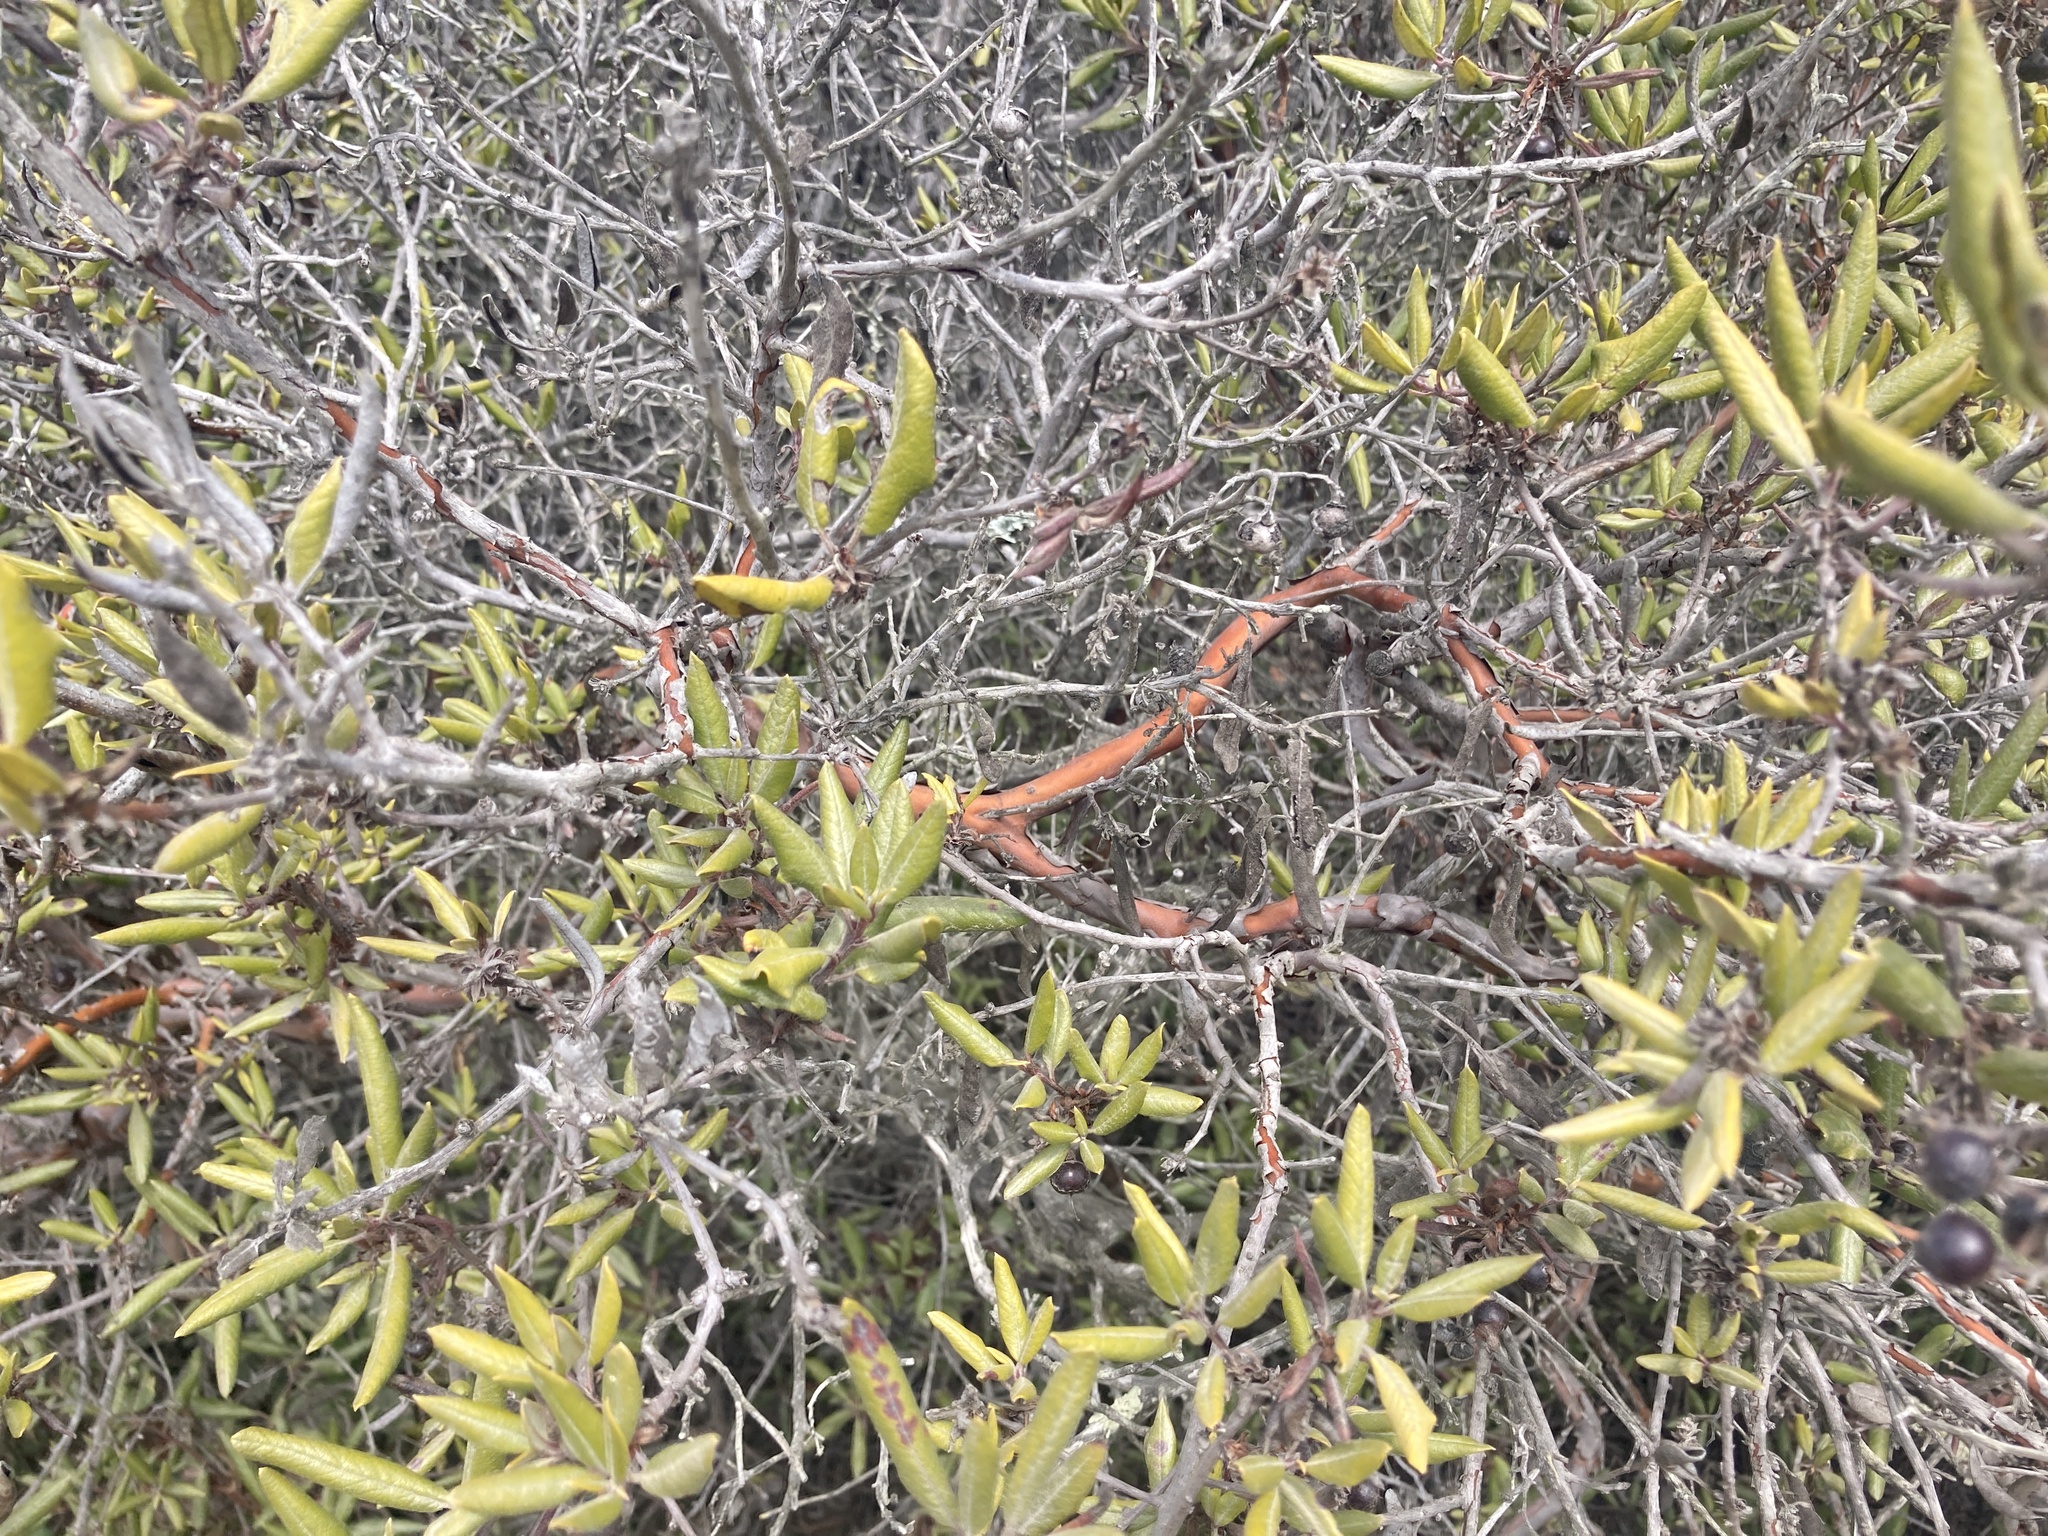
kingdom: Plantae
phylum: Tracheophyta
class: Magnoliopsida
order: Ericales
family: Ericaceae
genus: Arctostaphylos
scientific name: Arctostaphylos bicolor
